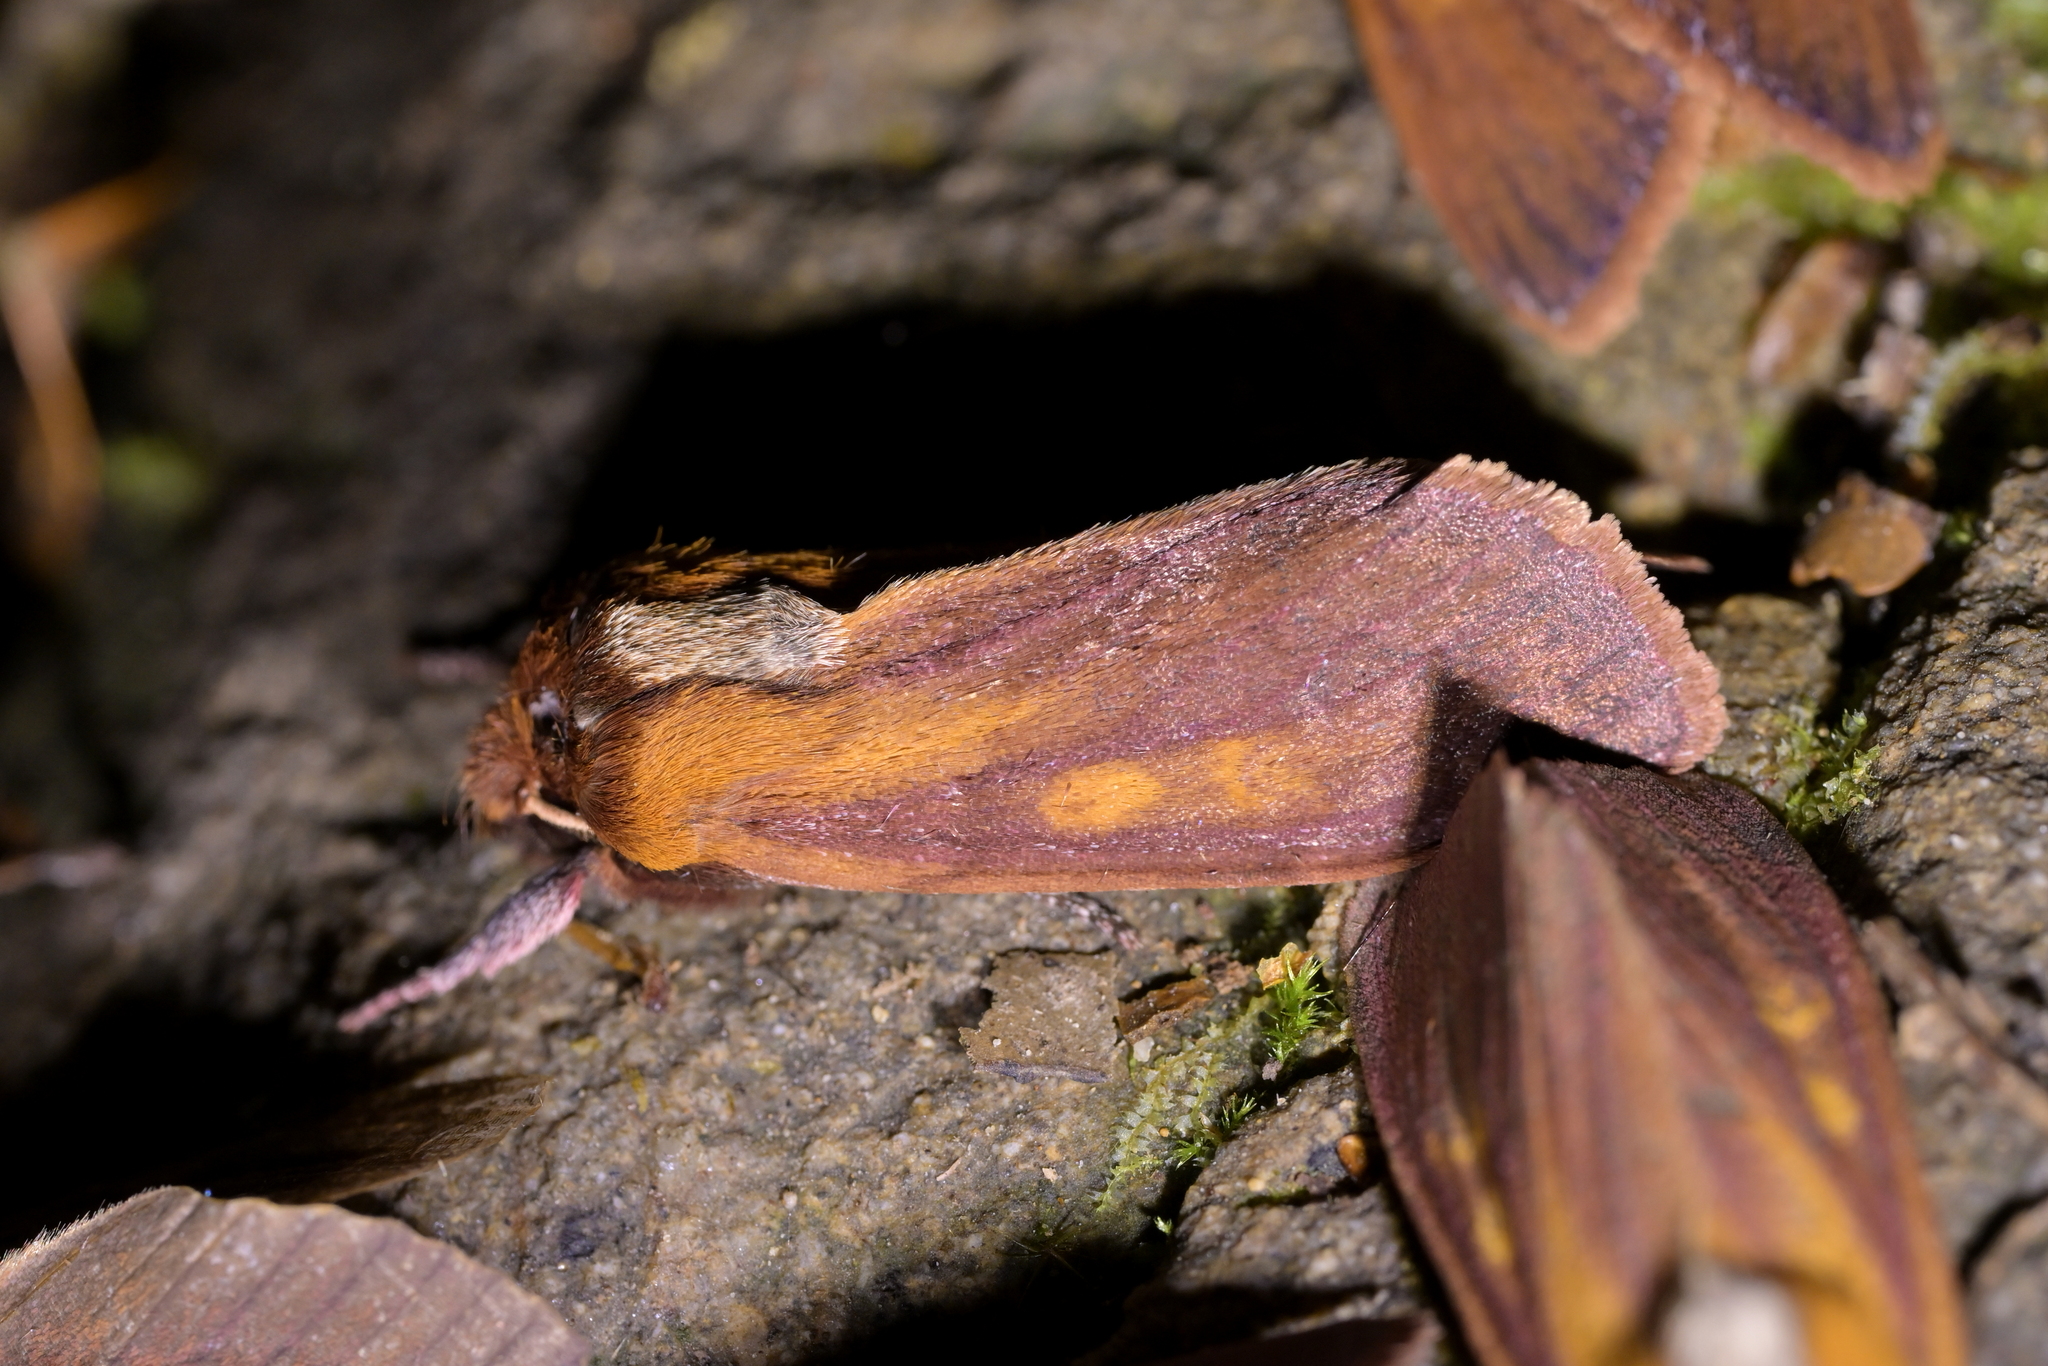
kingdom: Animalia
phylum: Arthropoda
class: Insecta
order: Lepidoptera
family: Noctuidae
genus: Ichneutica
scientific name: Ichneutica
